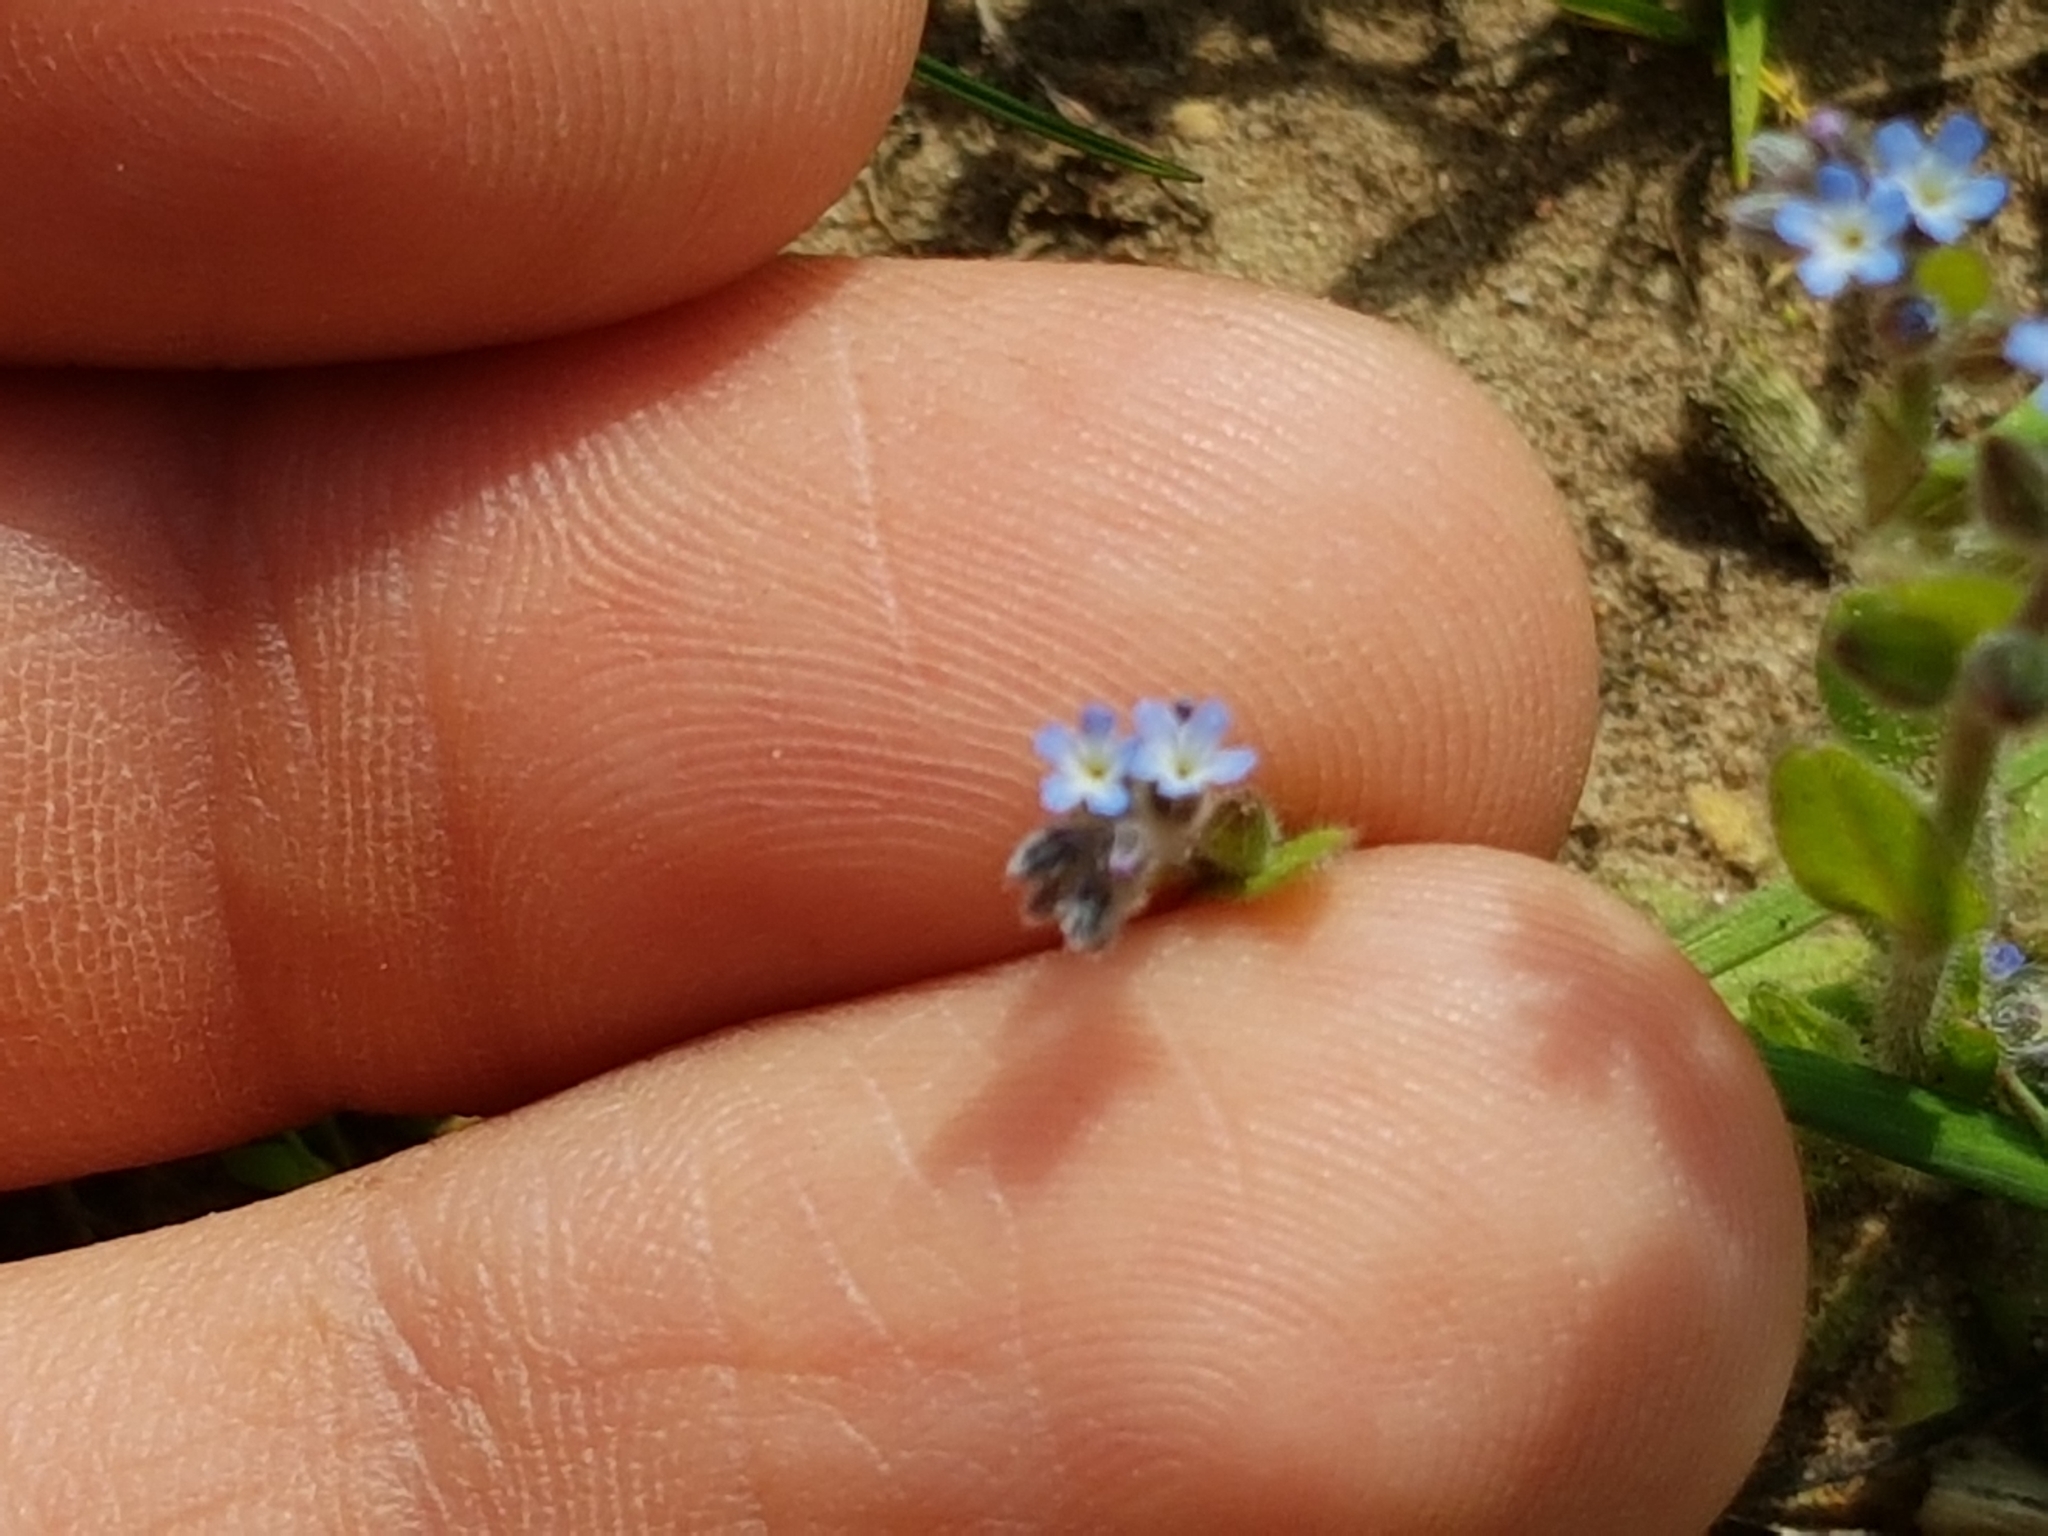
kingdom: Plantae
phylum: Tracheophyta
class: Magnoliopsida
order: Boraginales
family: Boraginaceae
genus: Myosotis
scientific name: Myosotis stricta
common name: Strict forget-me-not
